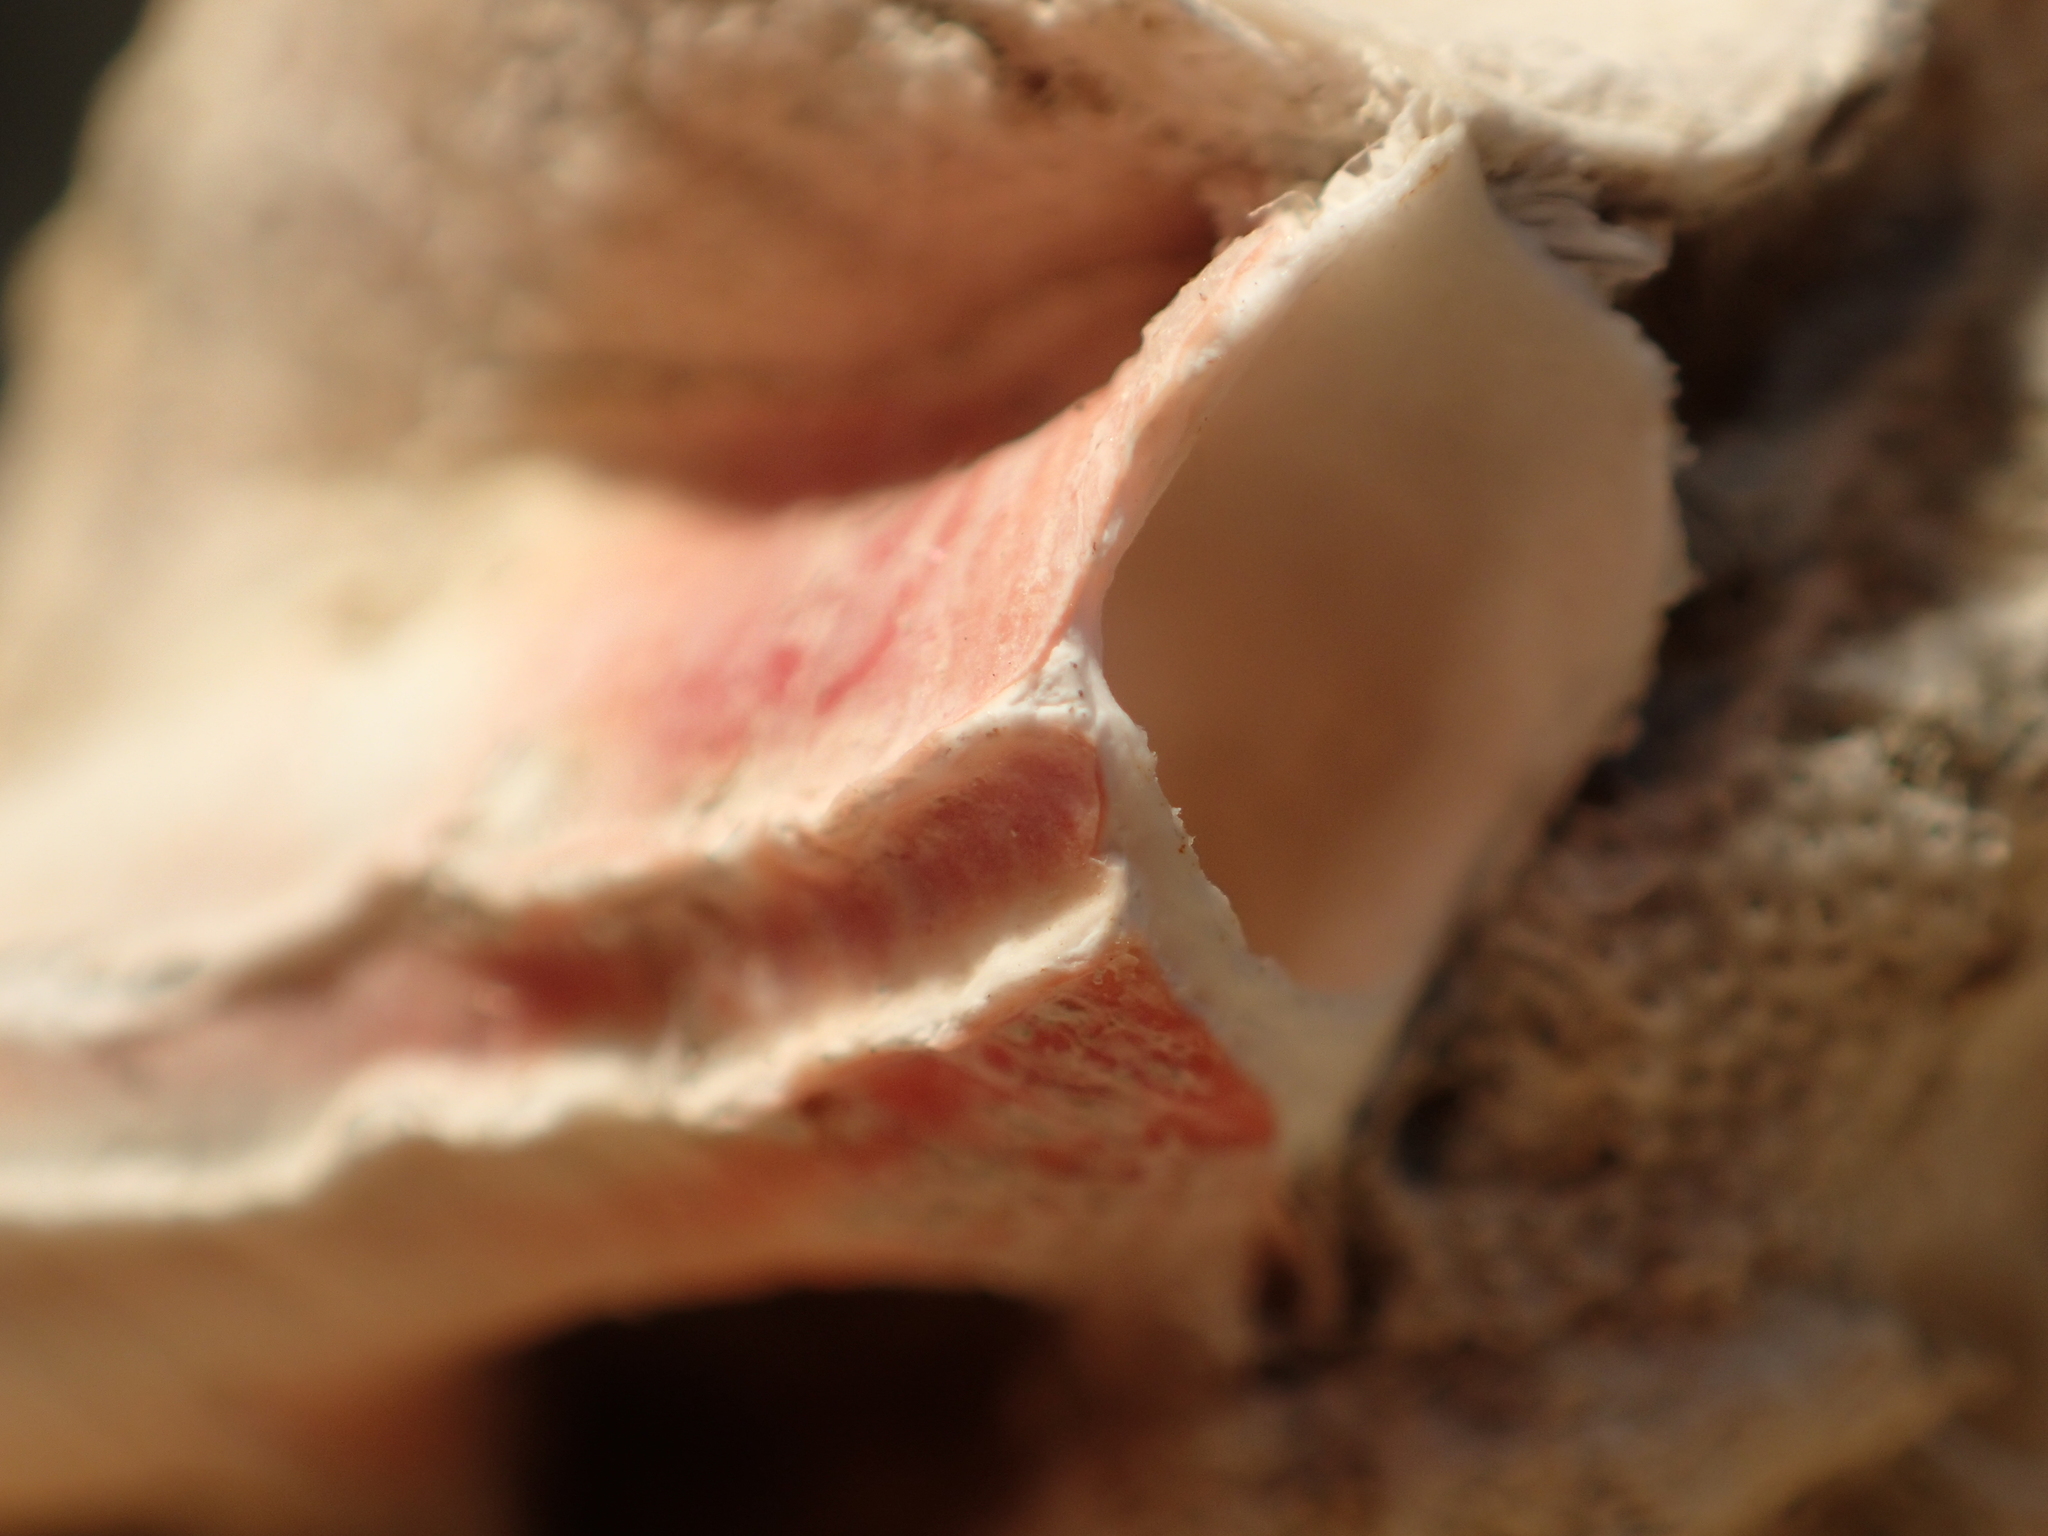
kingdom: Animalia
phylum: Annelida
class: Polychaeta
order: Sabellida
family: Serpulidae
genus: Galeolaria
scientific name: Galeolaria hystrix
